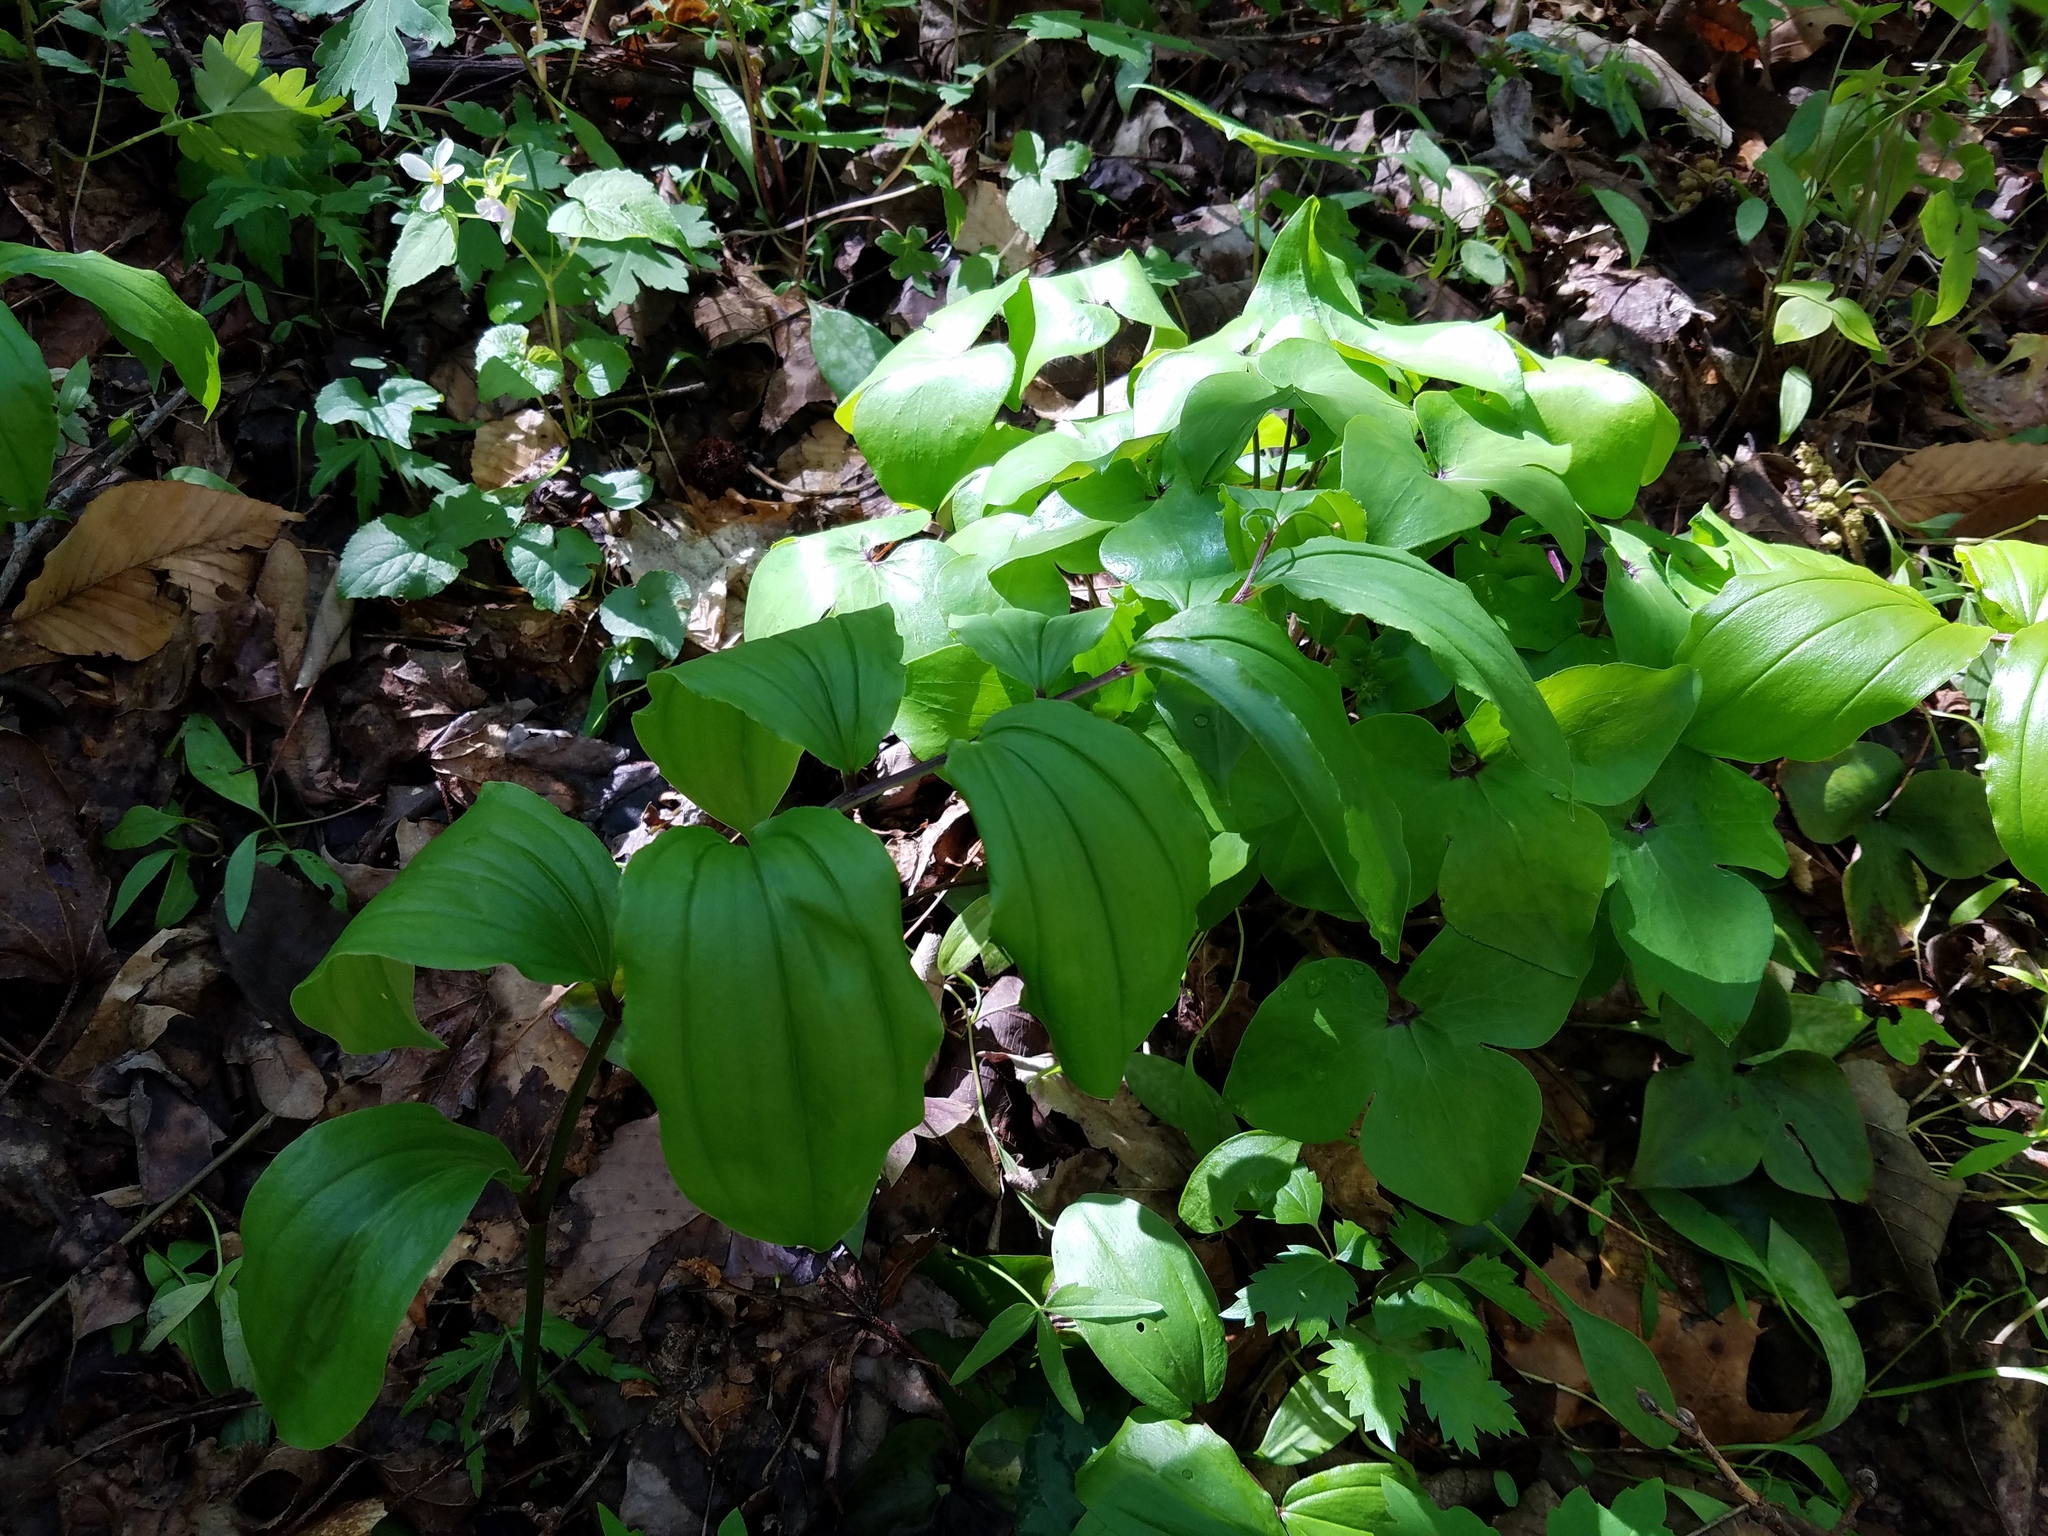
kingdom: Plantae
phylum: Tracheophyta
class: Liliopsida
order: Asparagales
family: Asparagaceae
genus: Maianthemum
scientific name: Maianthemum racemosum
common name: False spikenard
